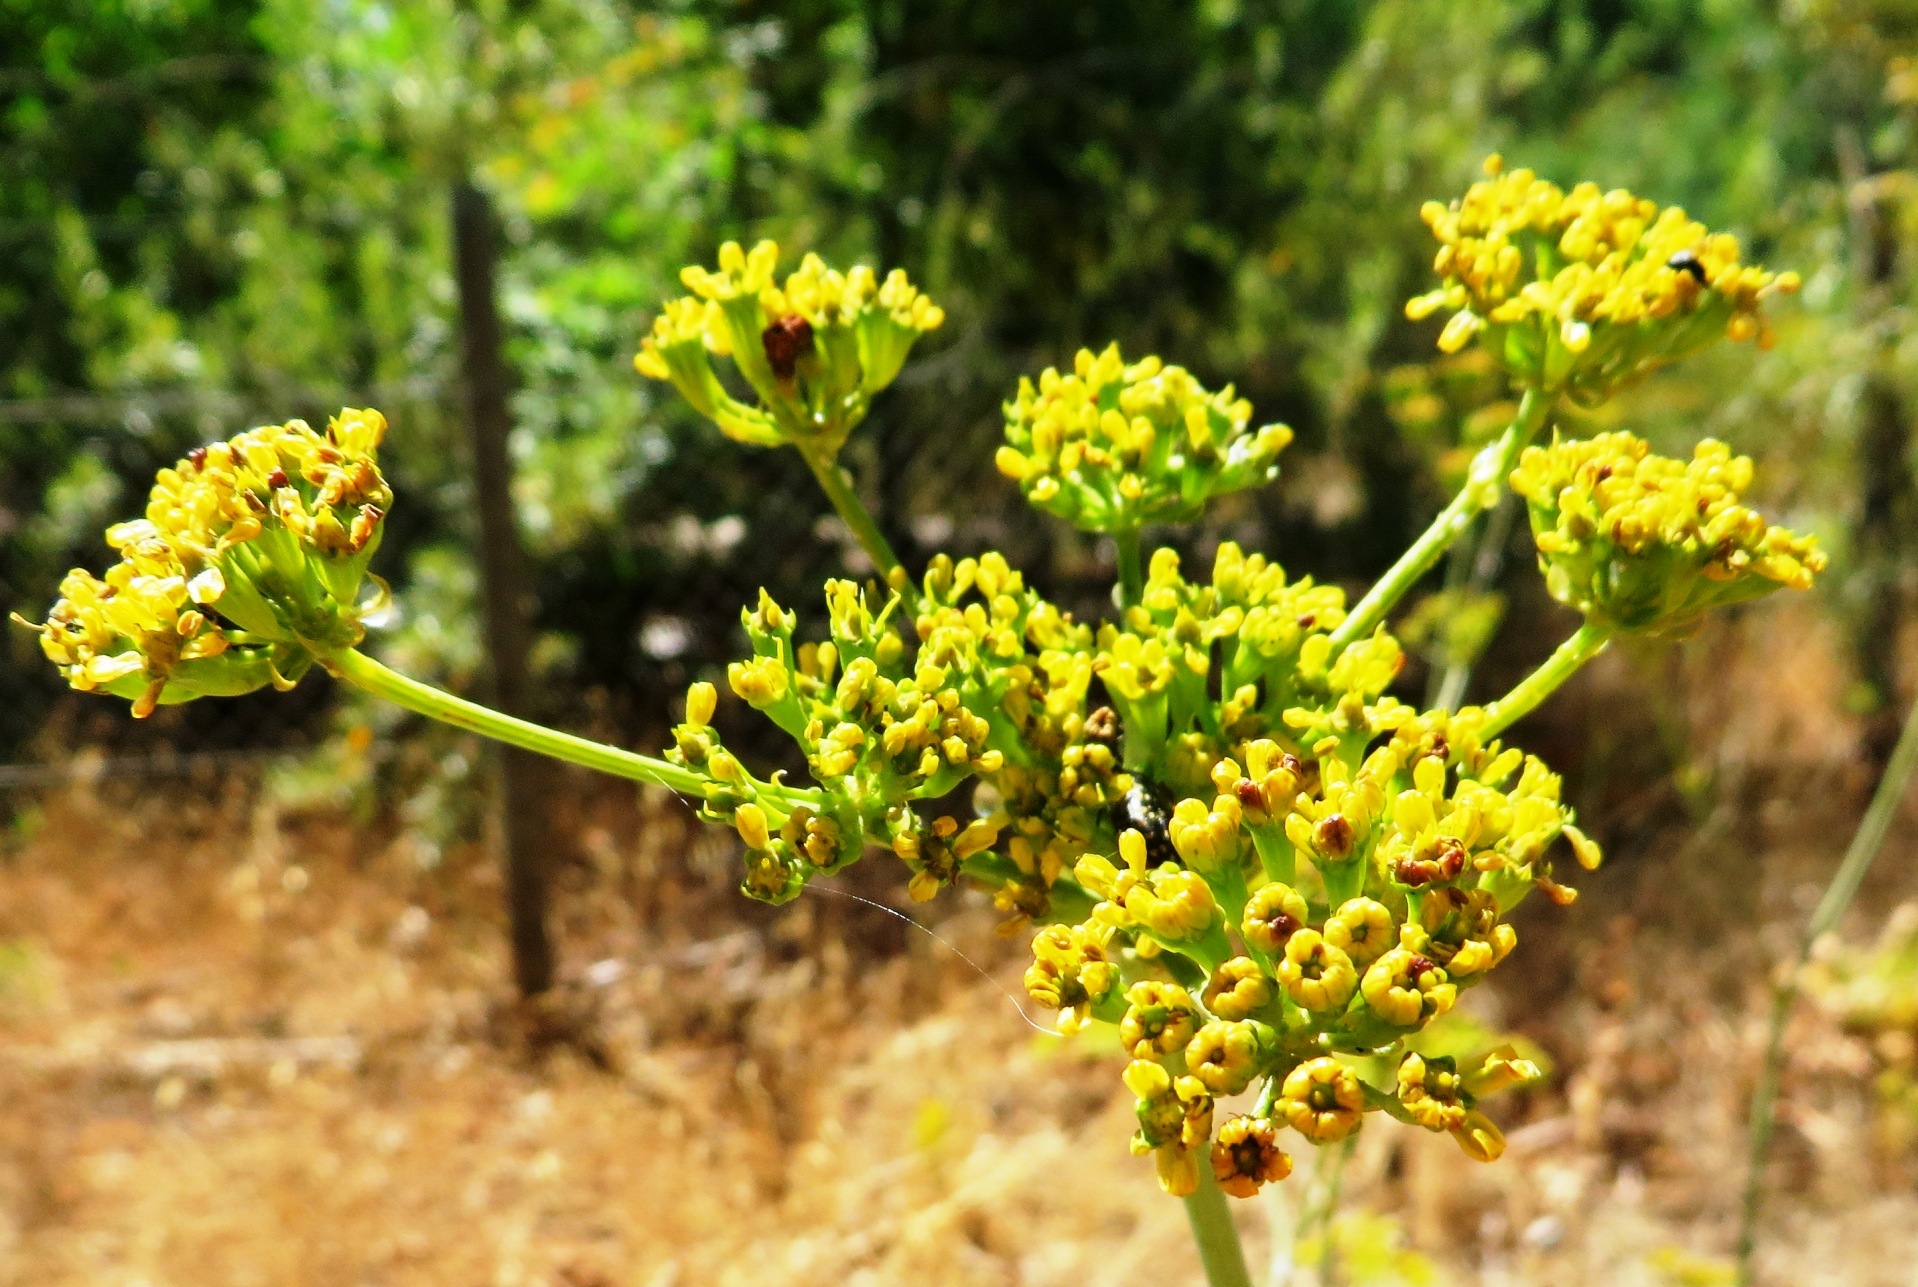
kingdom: Plantae
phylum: Tracheophyta
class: Magnoliopsida
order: Apiales
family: Apiaceae
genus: Lichtensteinia
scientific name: Lichtensteinia lacera
